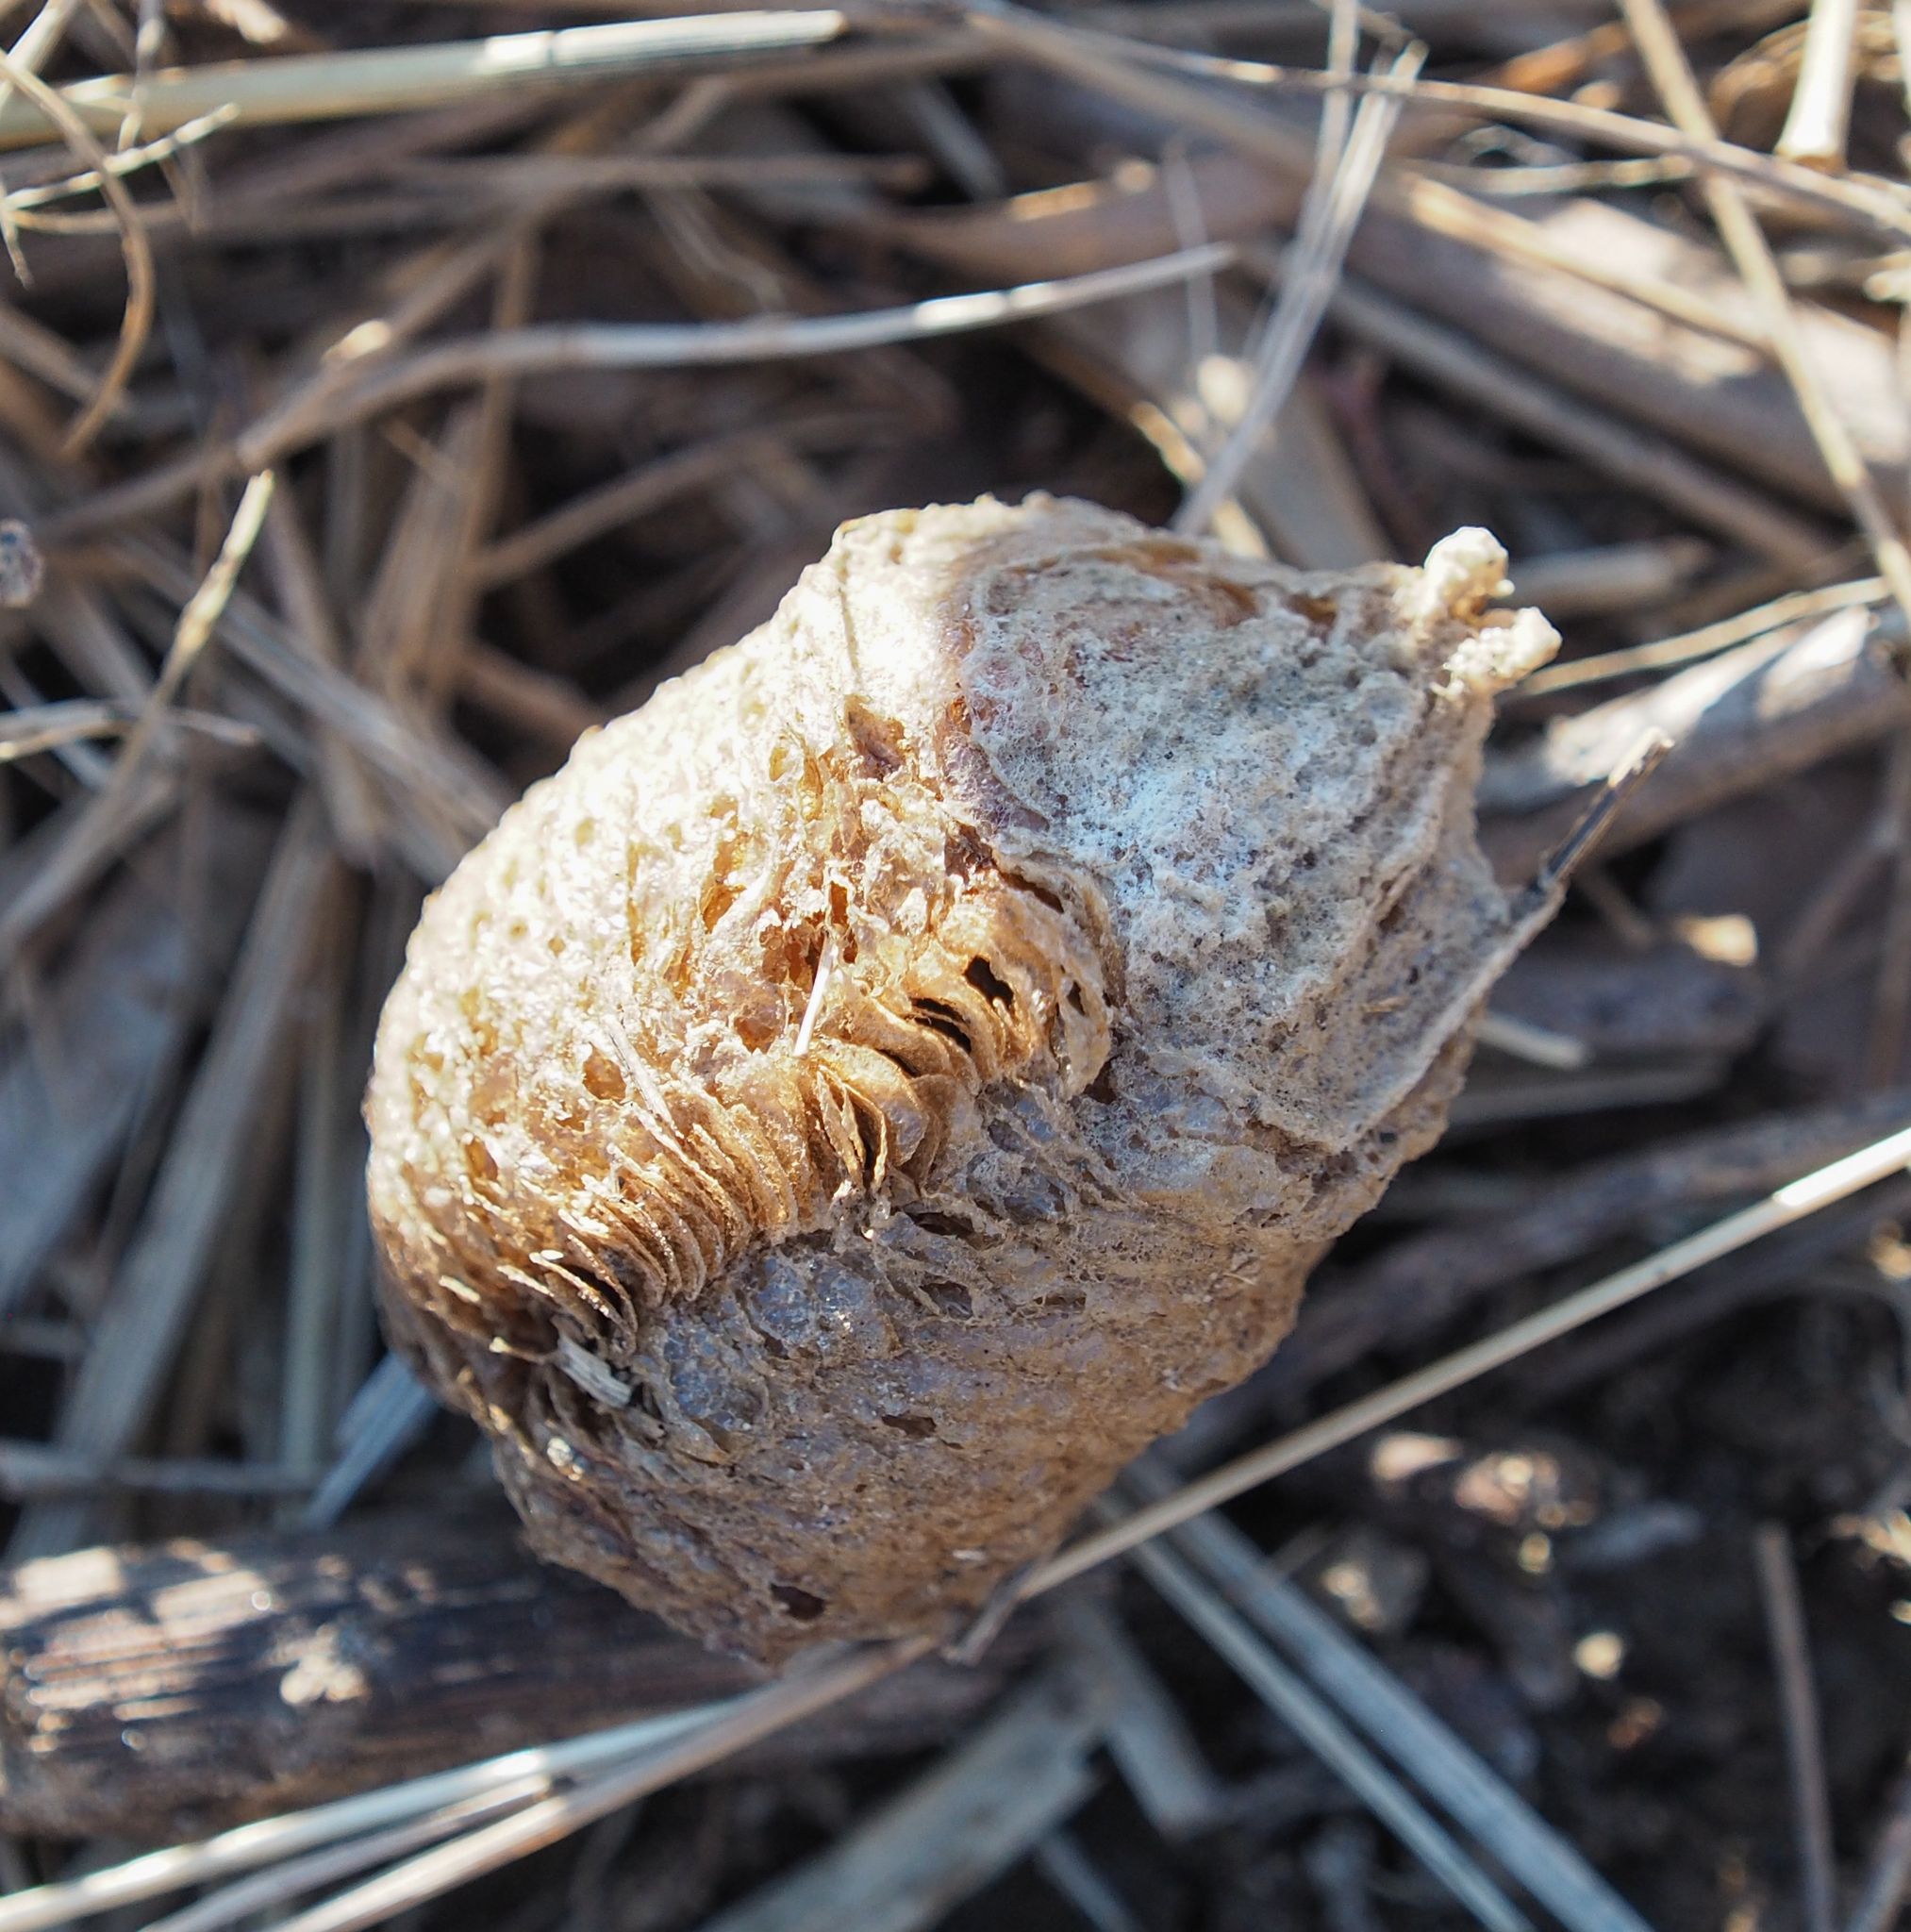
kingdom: Animalia
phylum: Arthropoda
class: Insecta
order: Mantodea
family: Mantidae
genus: Tenodera
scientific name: Tenodera sinensis
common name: Chinese mantis
